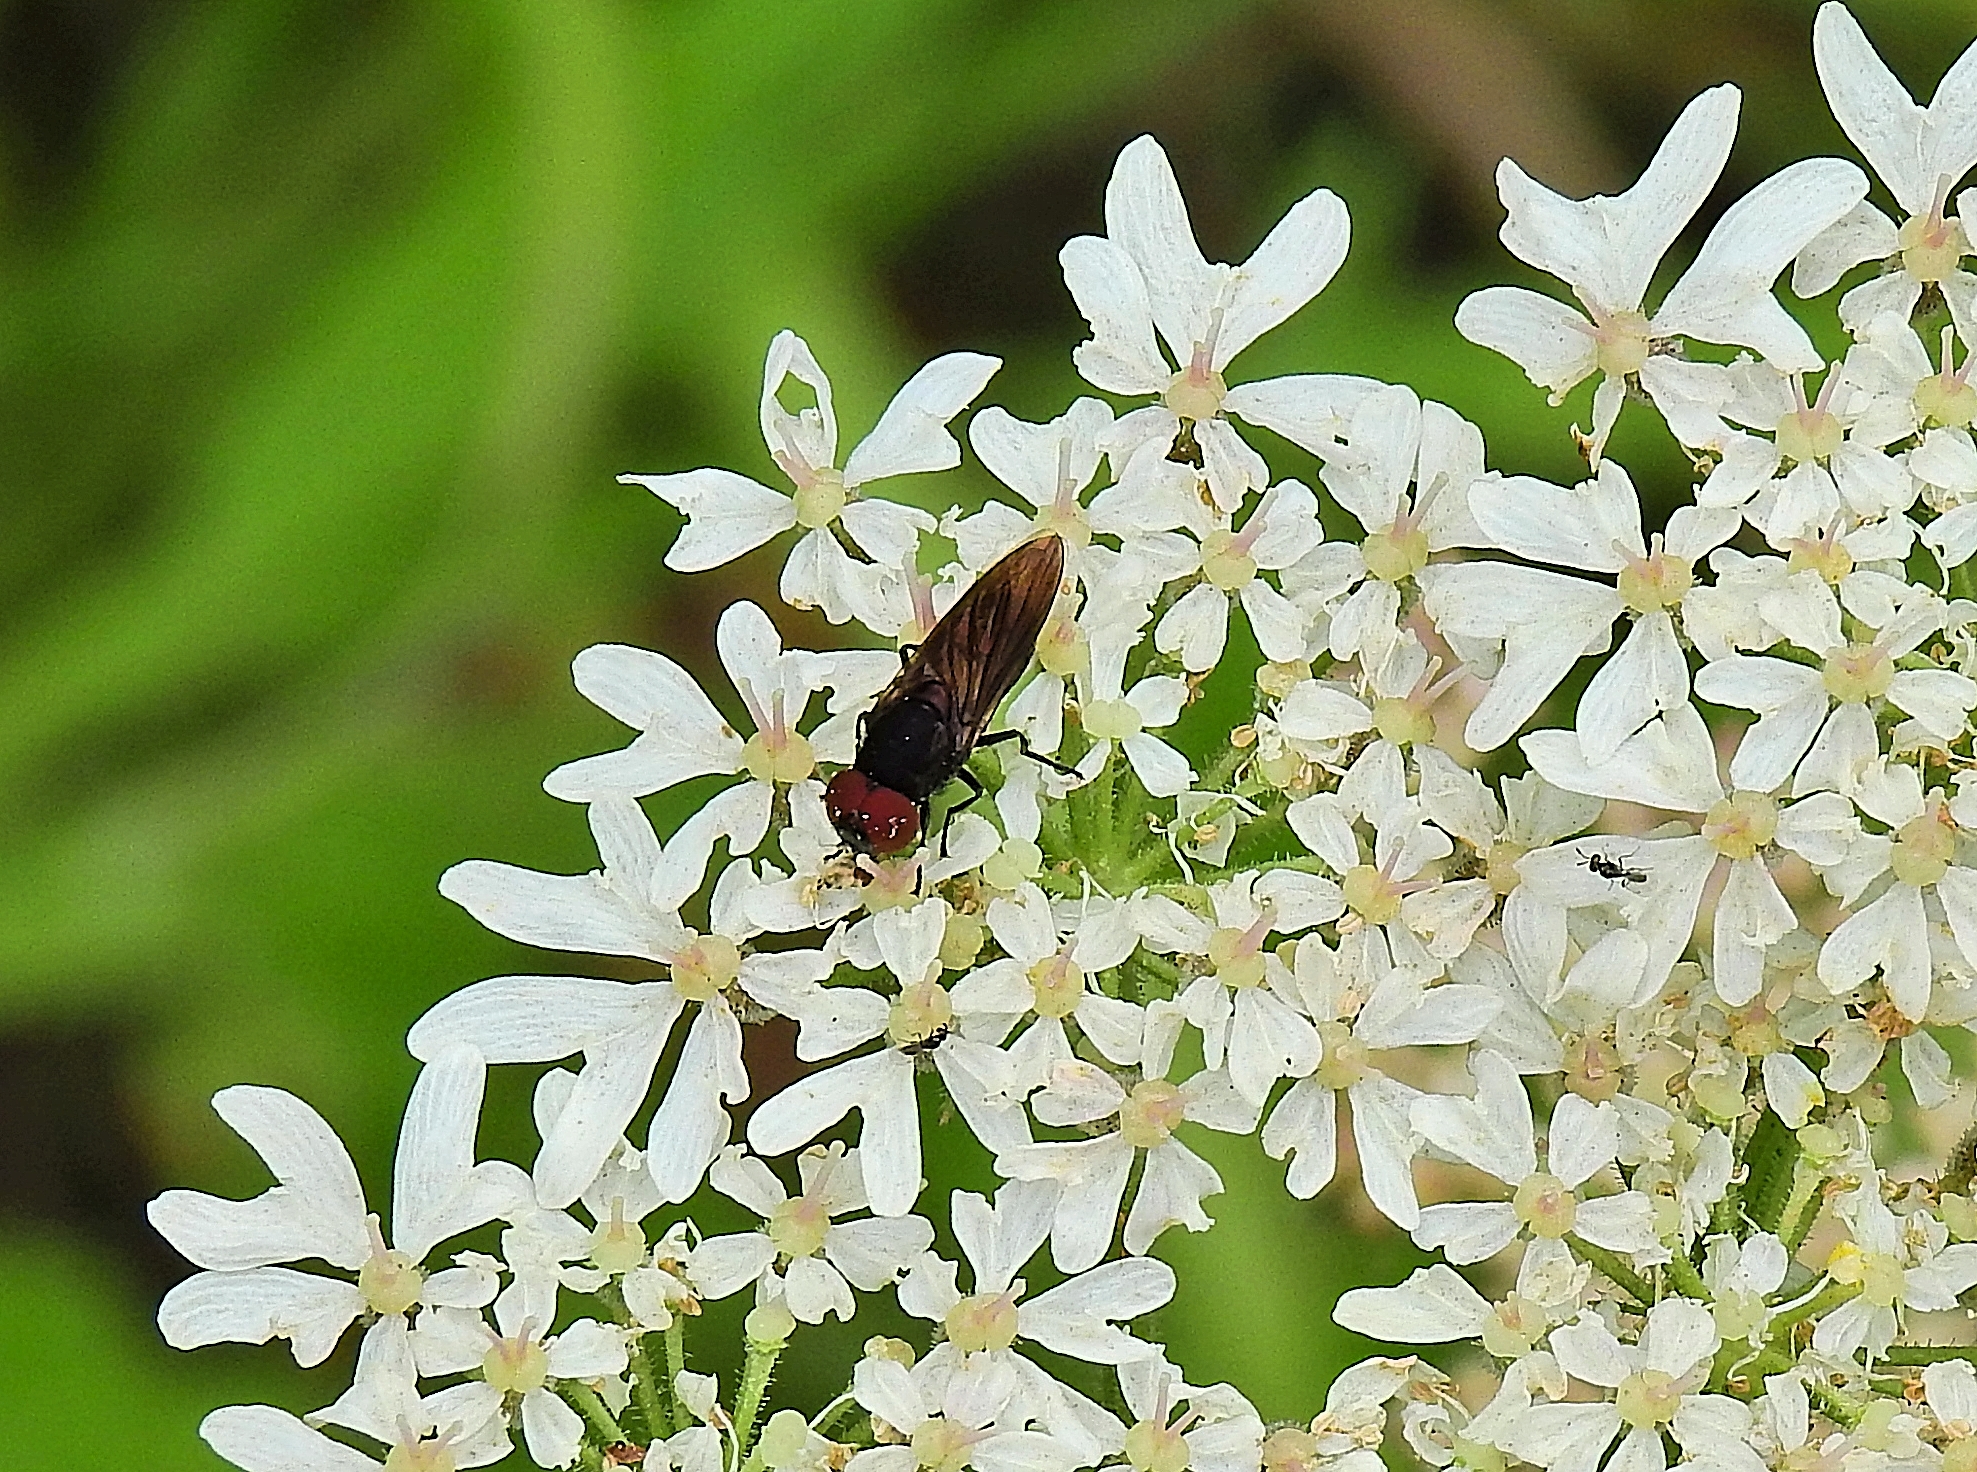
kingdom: Animalia
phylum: Arthropoda
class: Insecta
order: Diptera
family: Syrphidae
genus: Chrysogaster
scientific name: Chrysogaster solstitialis
